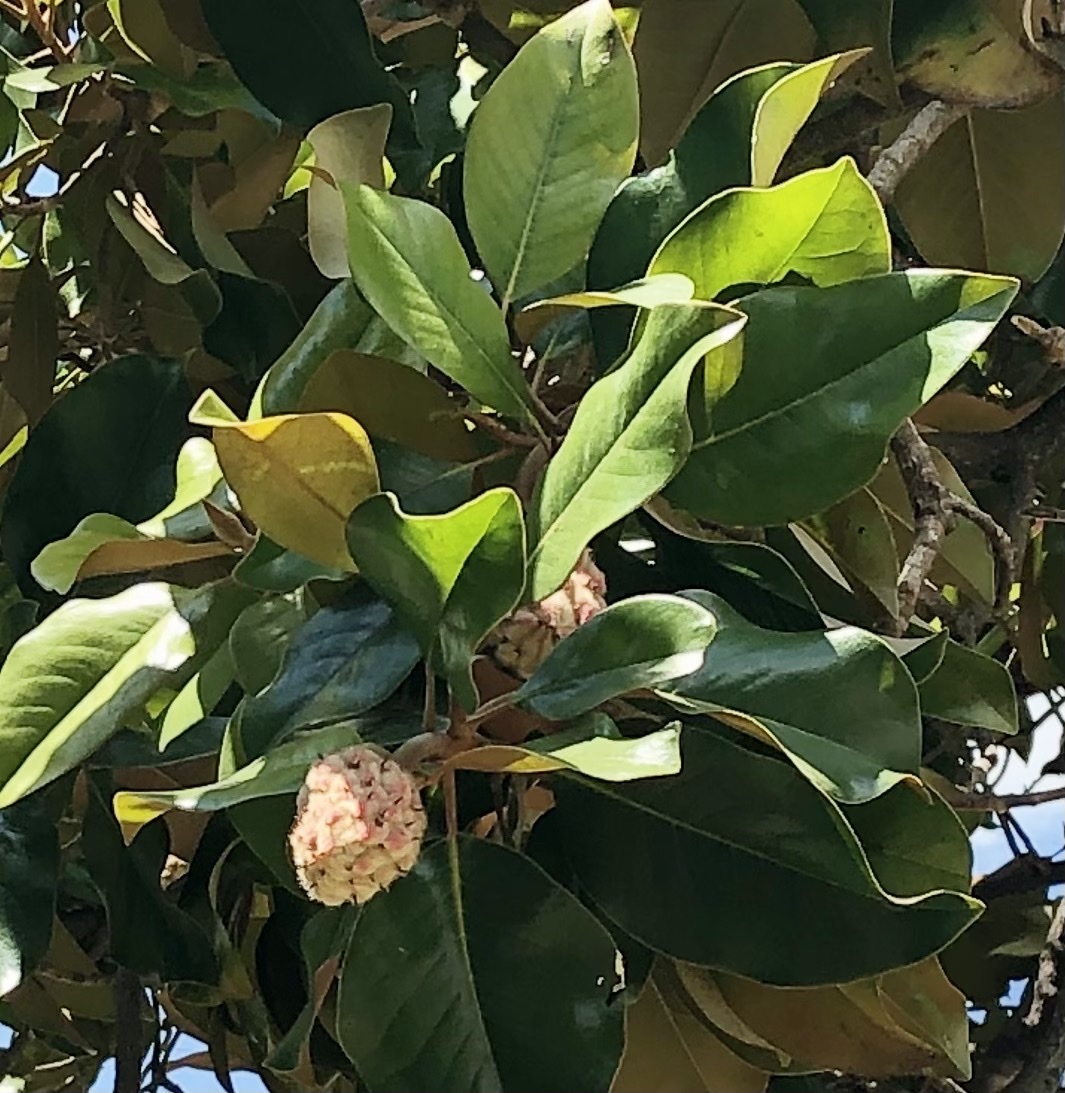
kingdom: Plantae
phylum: Tracheophyta
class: Magnoliopsida
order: Magnoliales
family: Magnoliaceae
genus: Magnolia
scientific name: Magnolia grandiflora
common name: Southern magnolia
